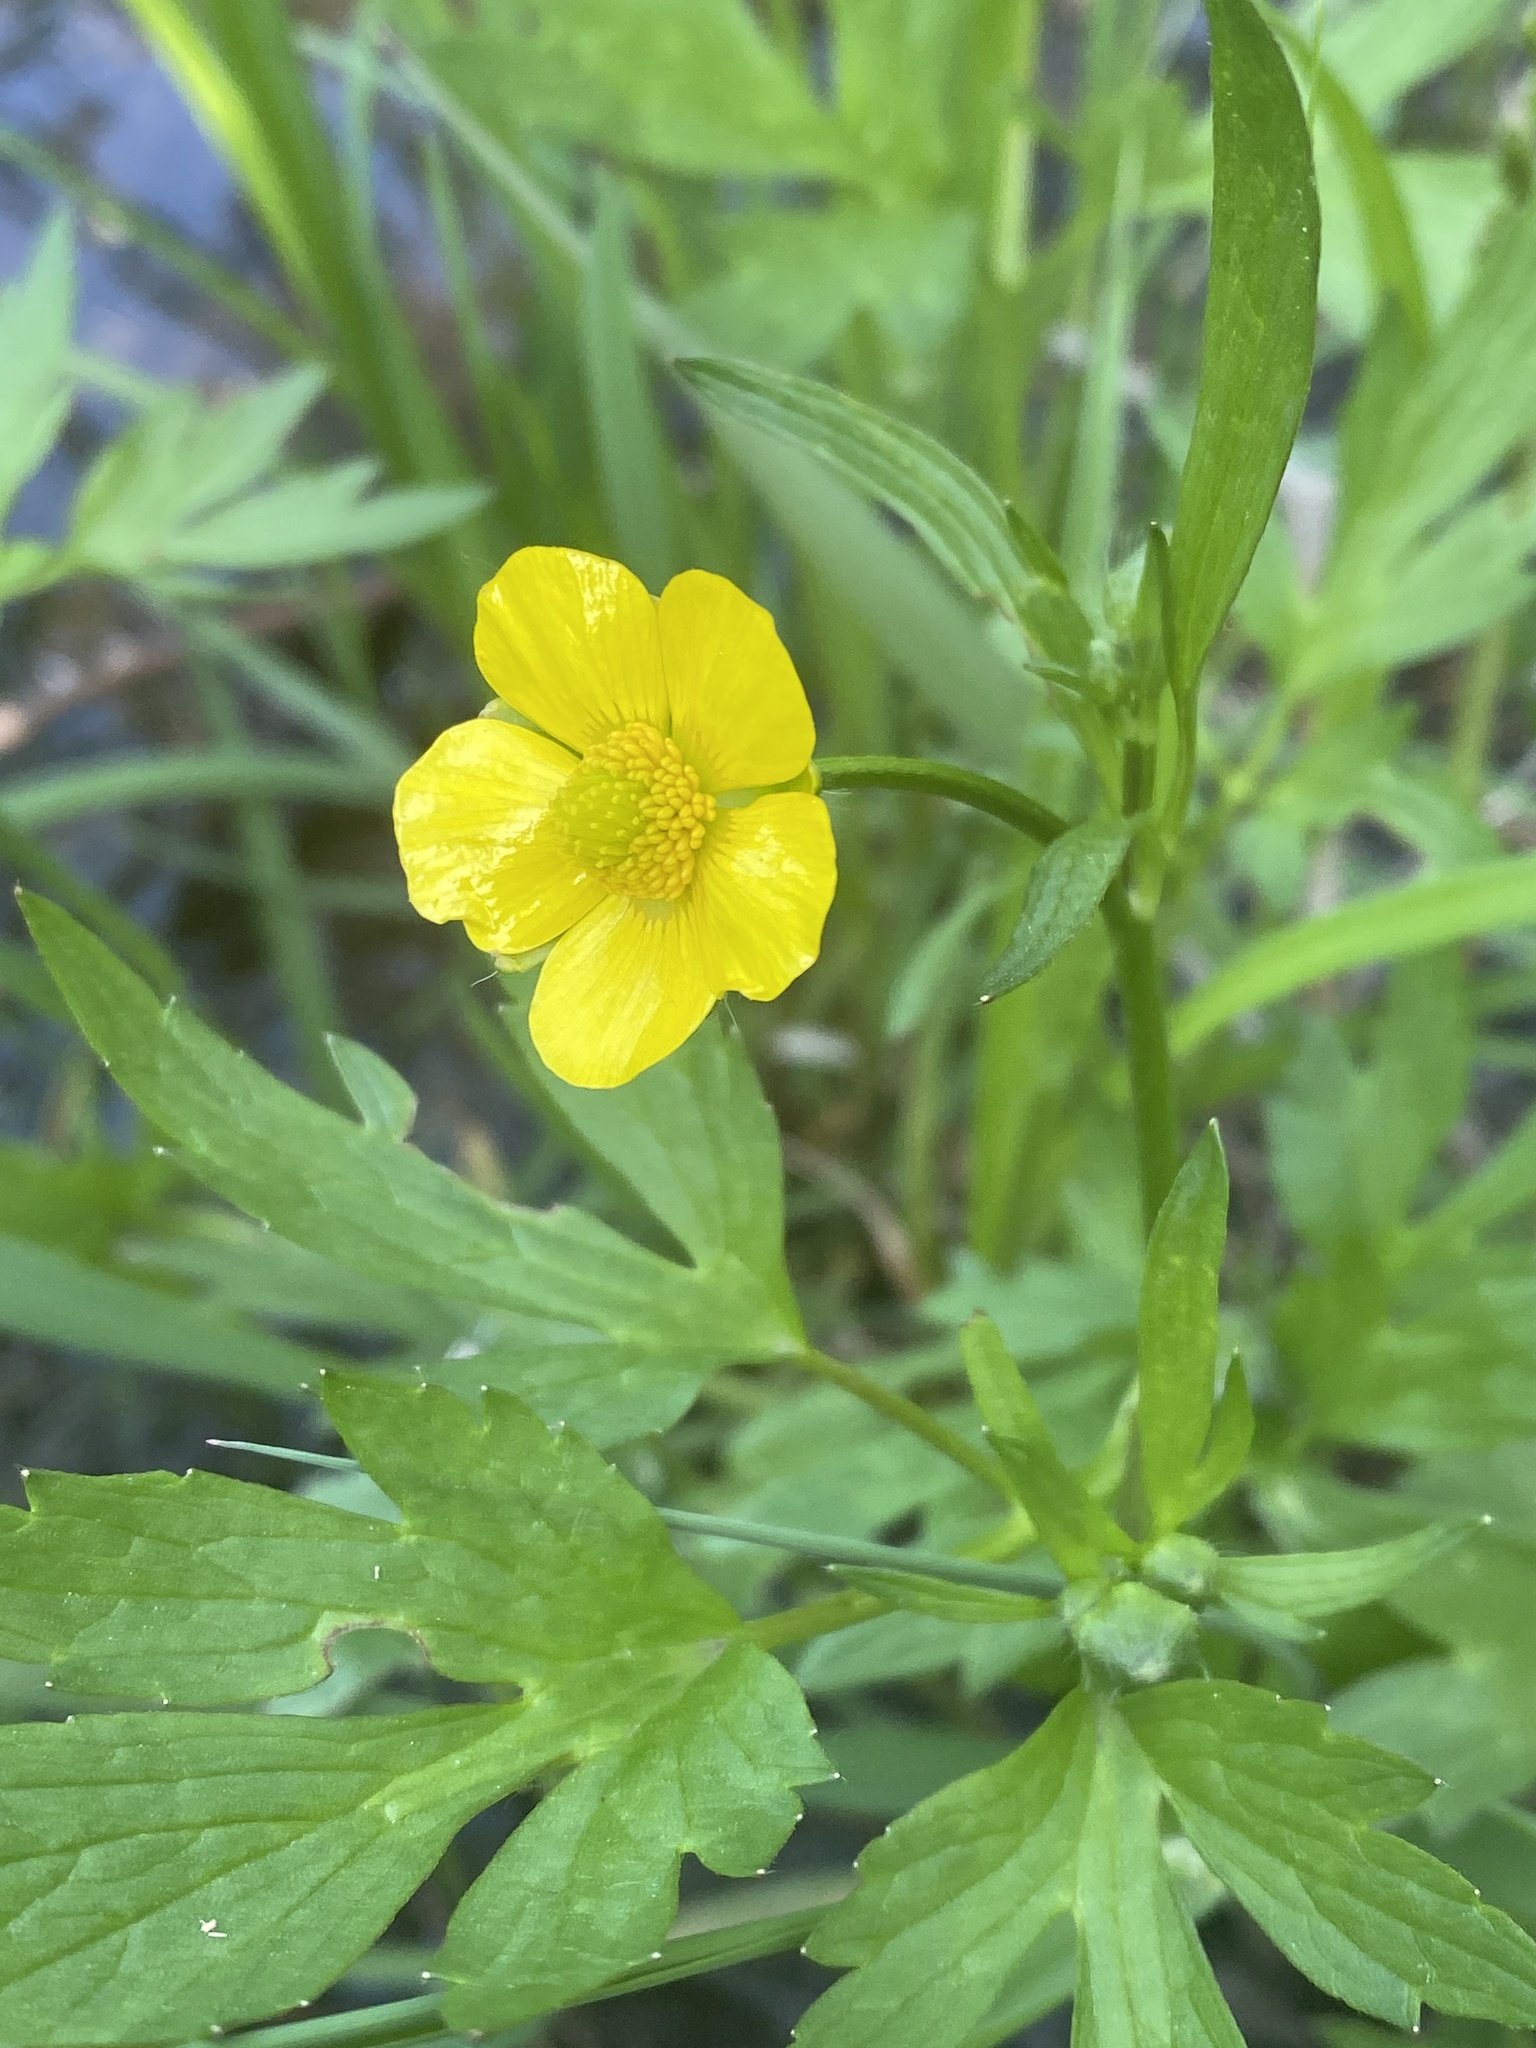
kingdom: Plantae
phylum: Tracheophyta
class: Magnoliopsida
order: Ranunculales
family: Ranunculaceae
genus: Ranunculus
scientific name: Ranunculus hispidus
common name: Bristly buttercup
